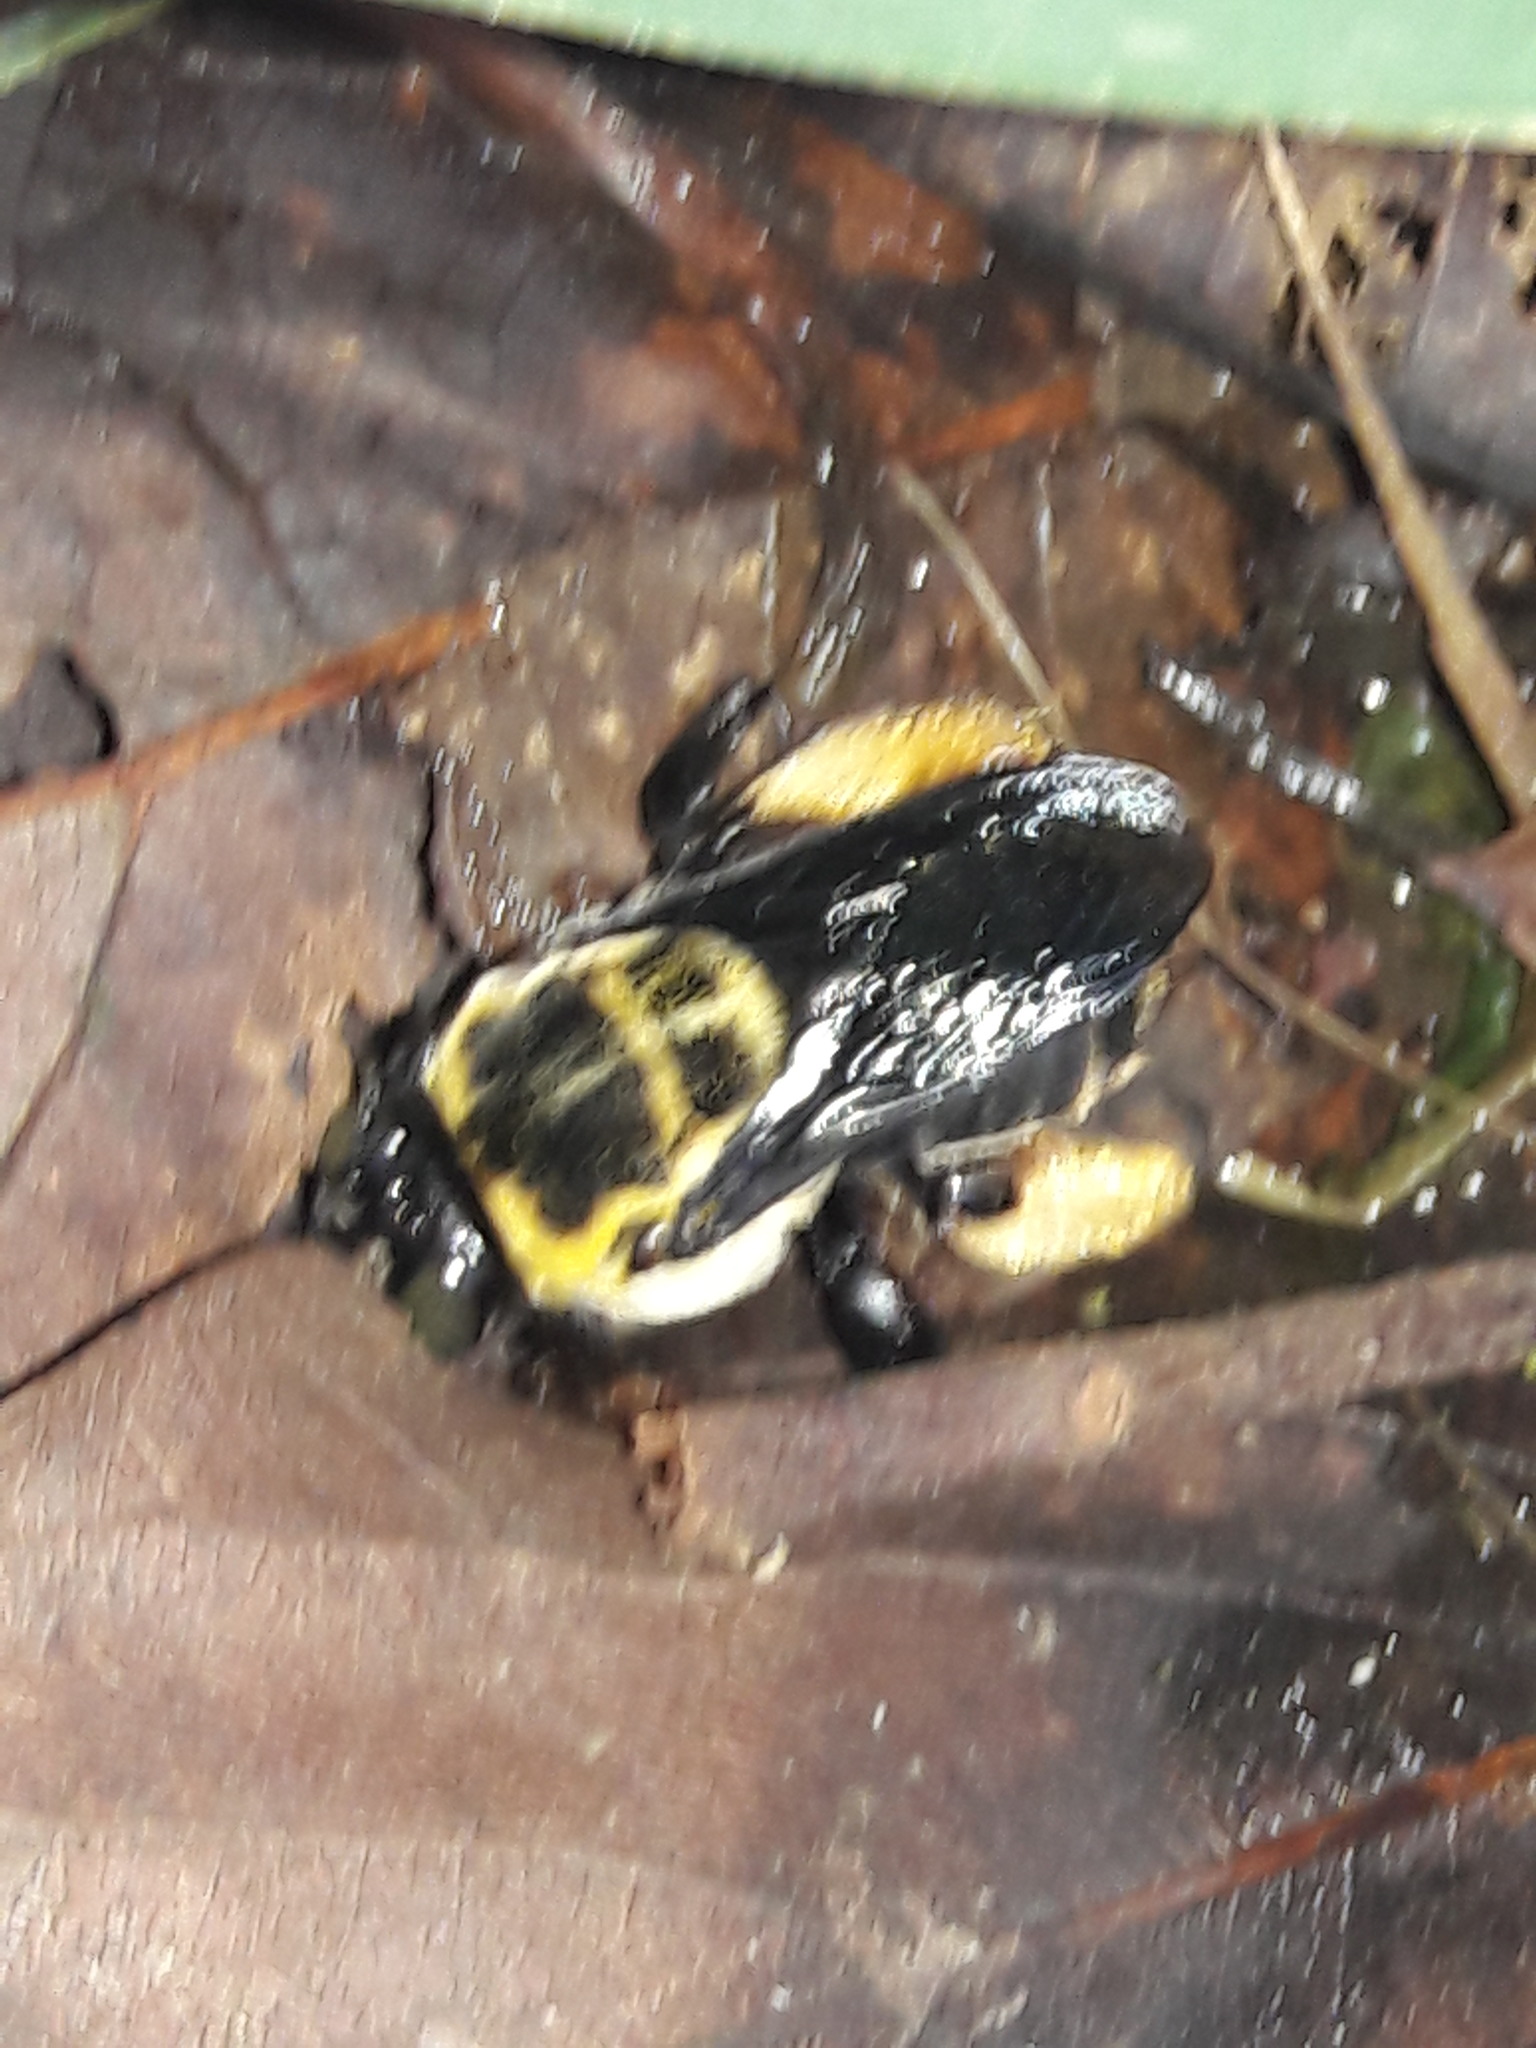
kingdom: Animalia
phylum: Arthropoda
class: Insecta
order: Hymenoptera
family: Apidae
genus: Centris
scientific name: Centris mocsaryi
